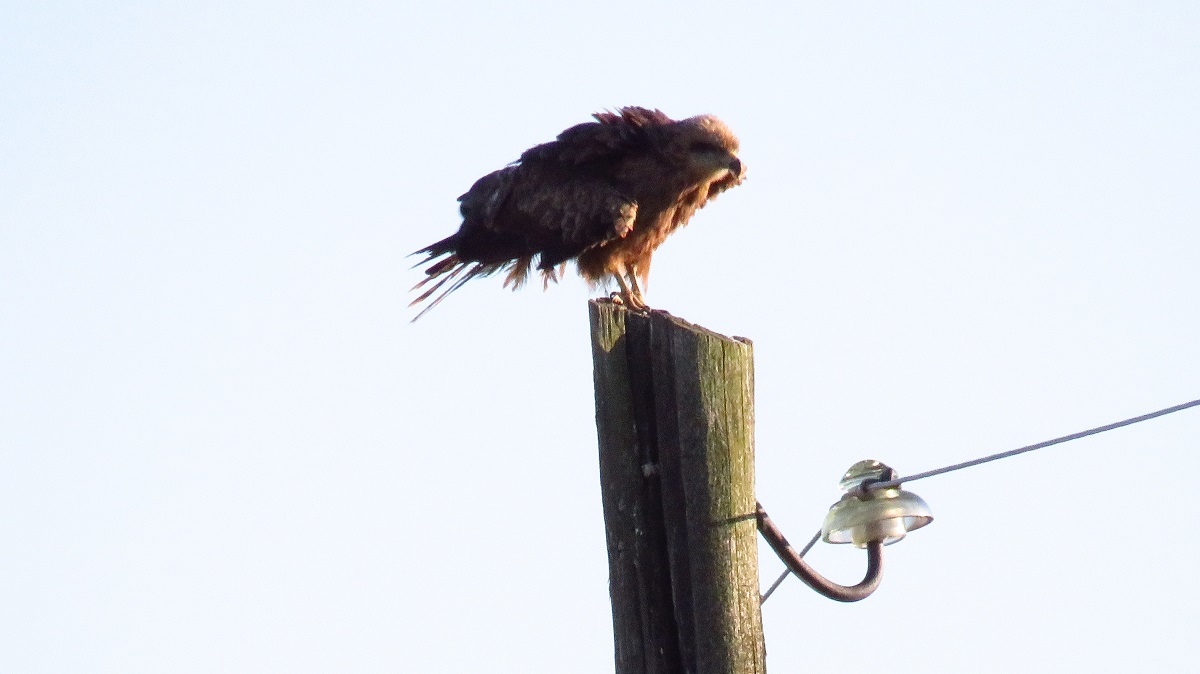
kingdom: Animalia
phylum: Chordata
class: Aves
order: Accipitriformes
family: Accipitridae
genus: Milvus
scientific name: Milvus migrans
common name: Black kite
